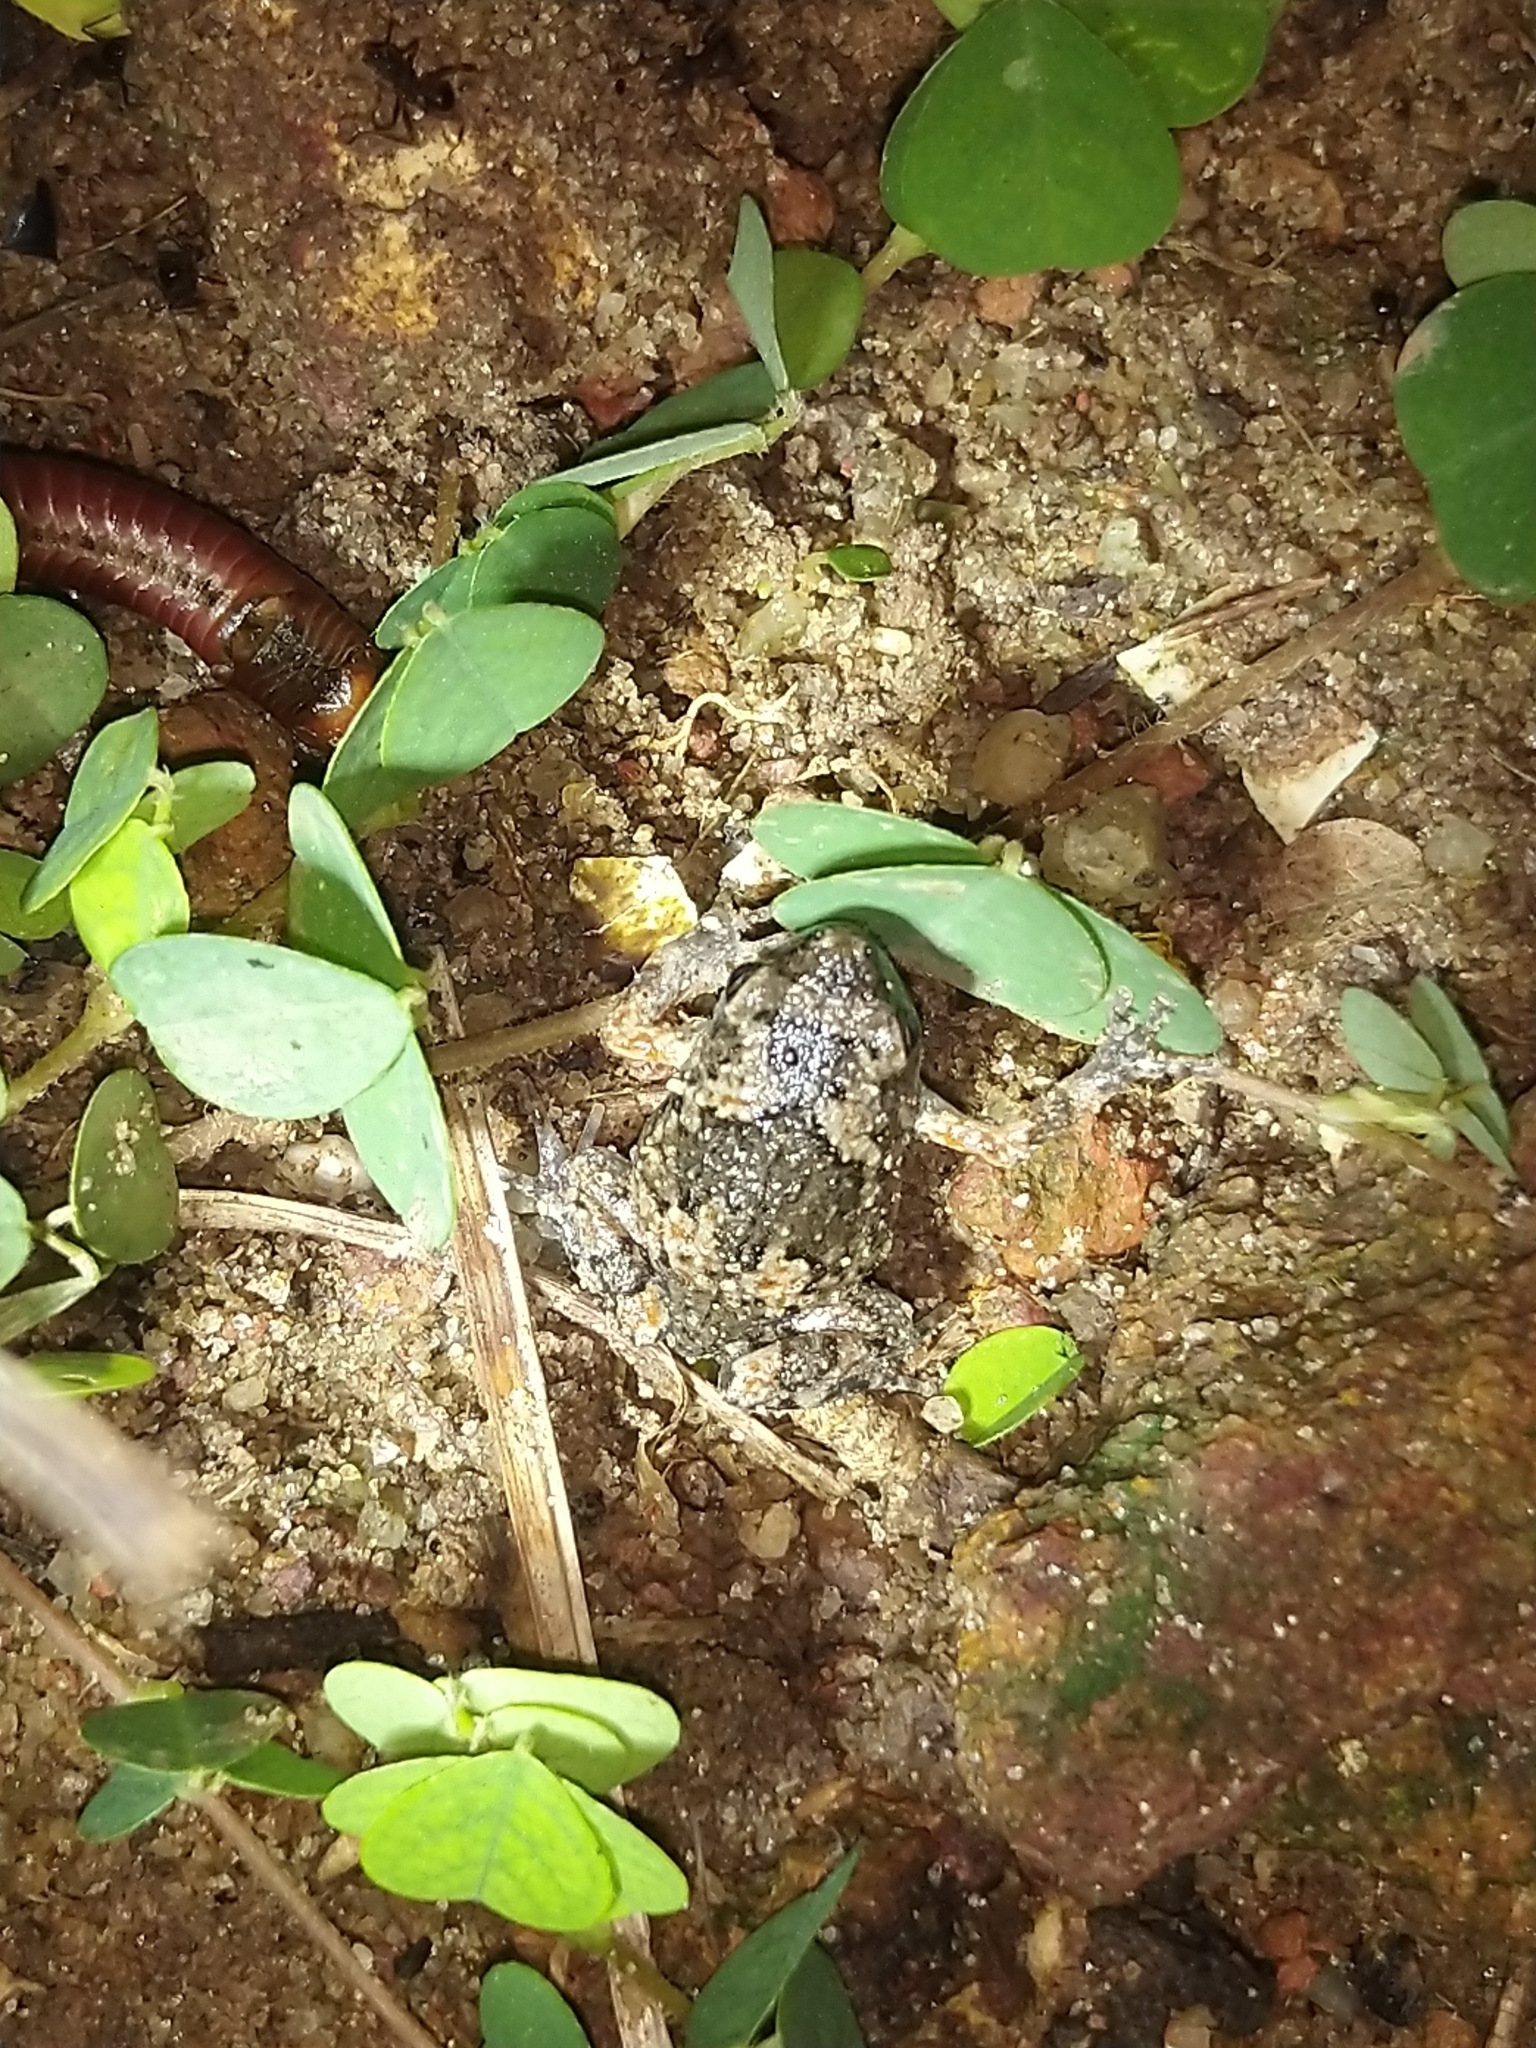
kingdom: Animalia
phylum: Chordata
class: Amphibia
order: Anura
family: Microhylidae
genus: Uperodon
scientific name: Uperodon taprobanicus
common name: Ceylon kaloula
